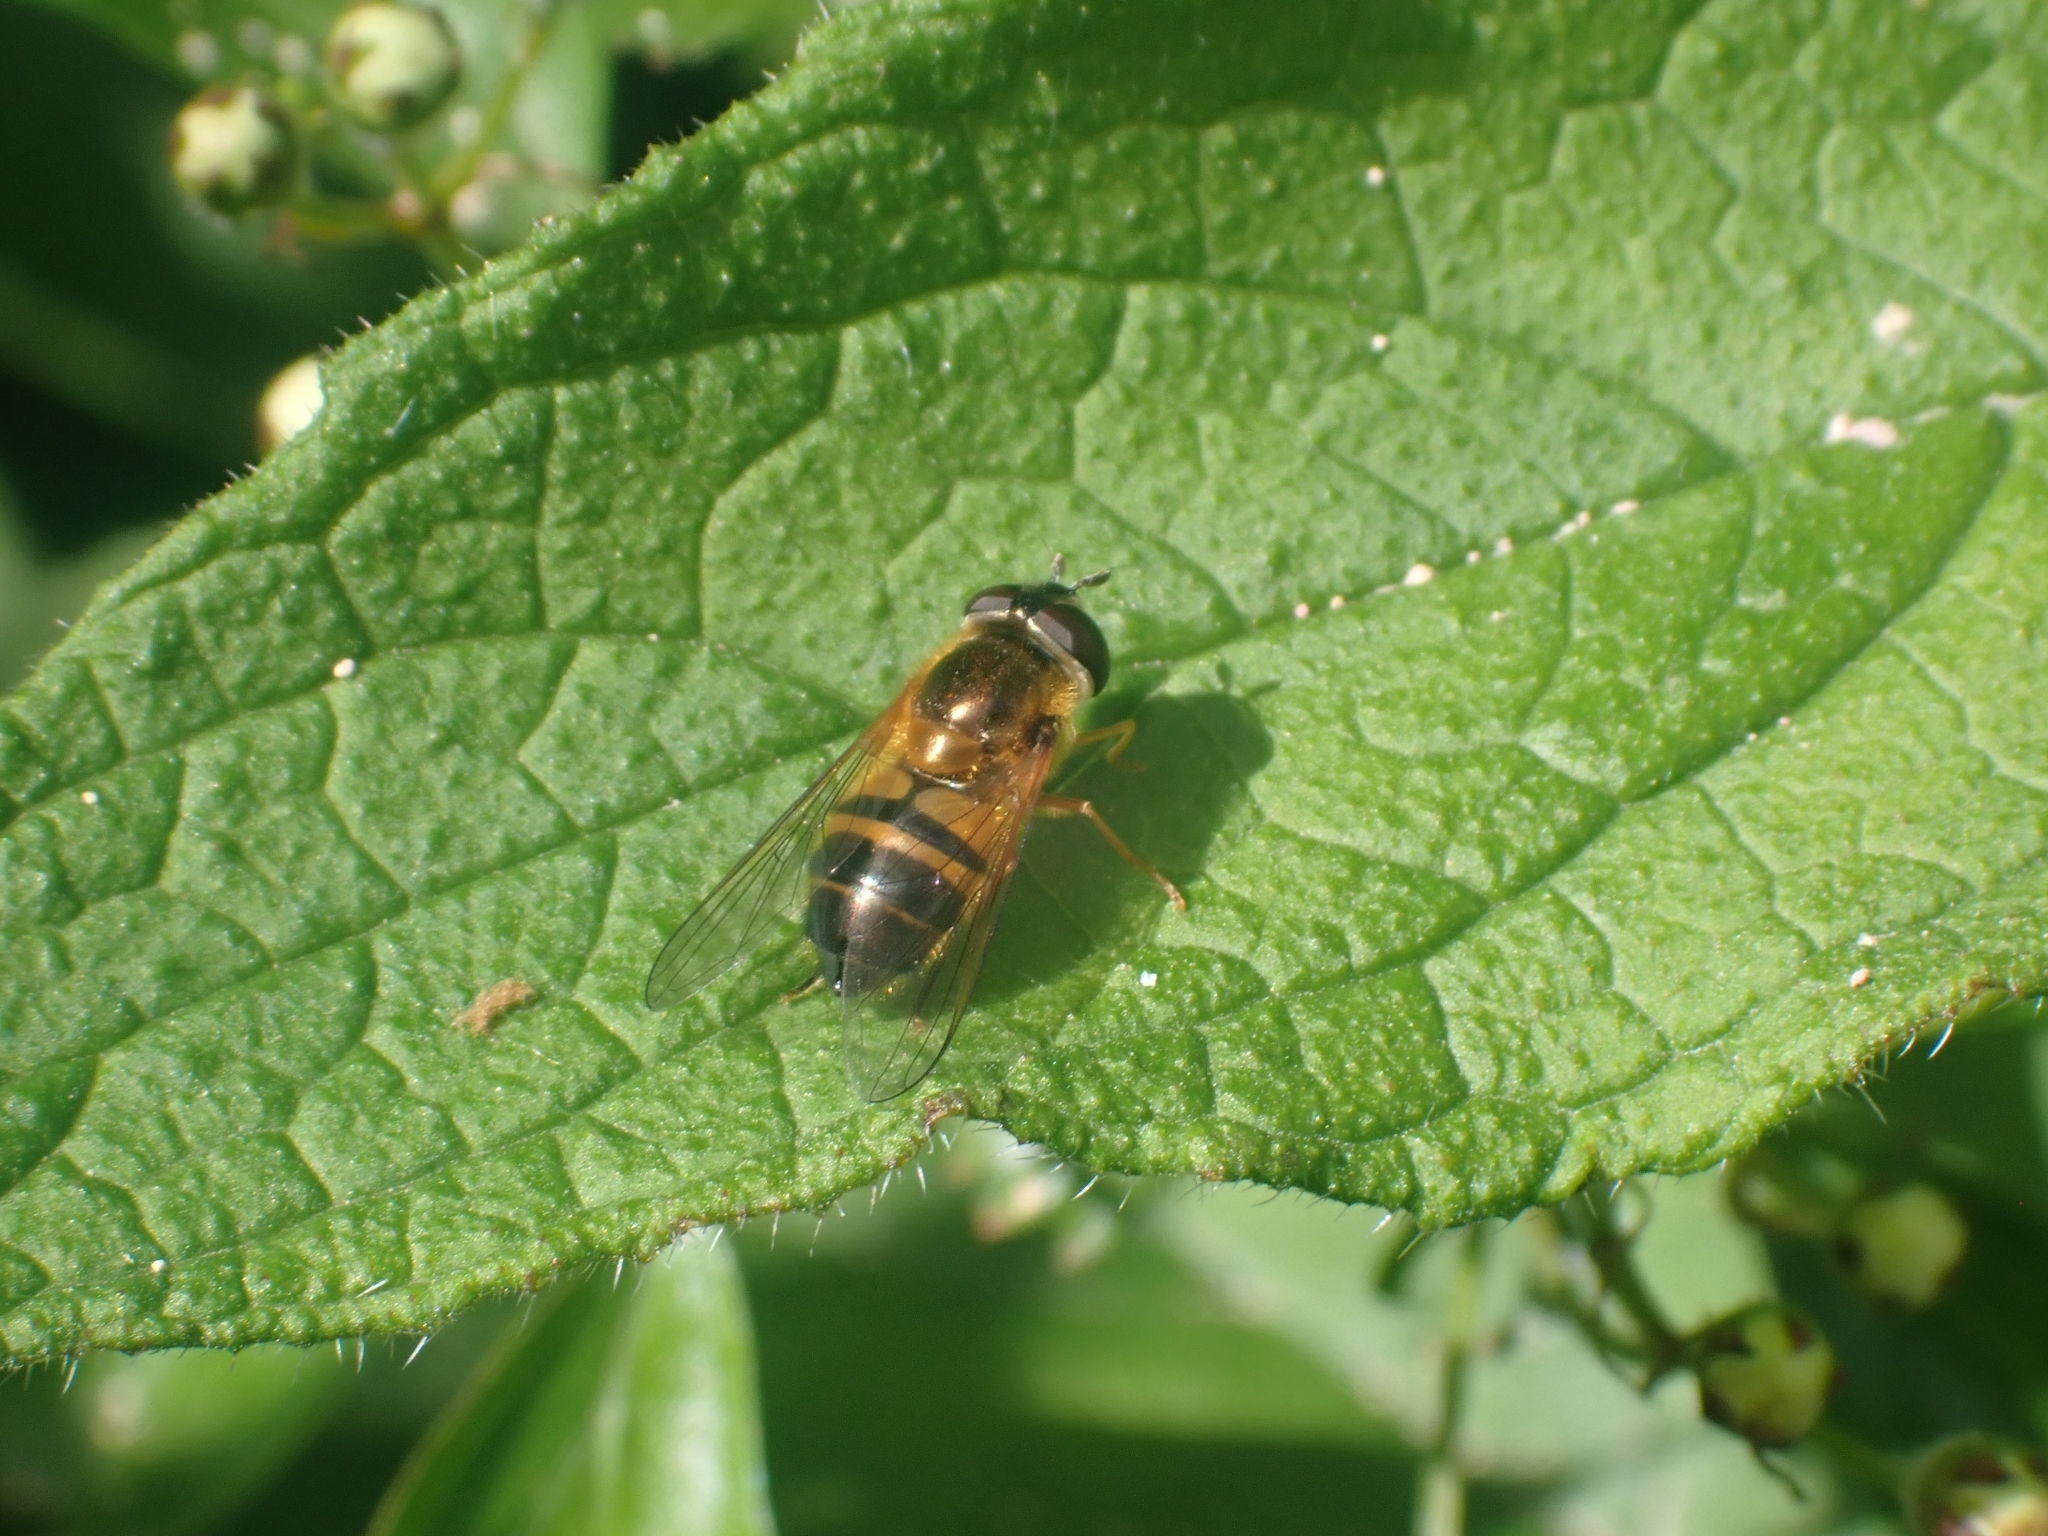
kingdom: Animalia
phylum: Arthropoda
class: Insecta
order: Diptera
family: Syrphidae
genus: Epistrophe
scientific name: Epistrophe eligans
